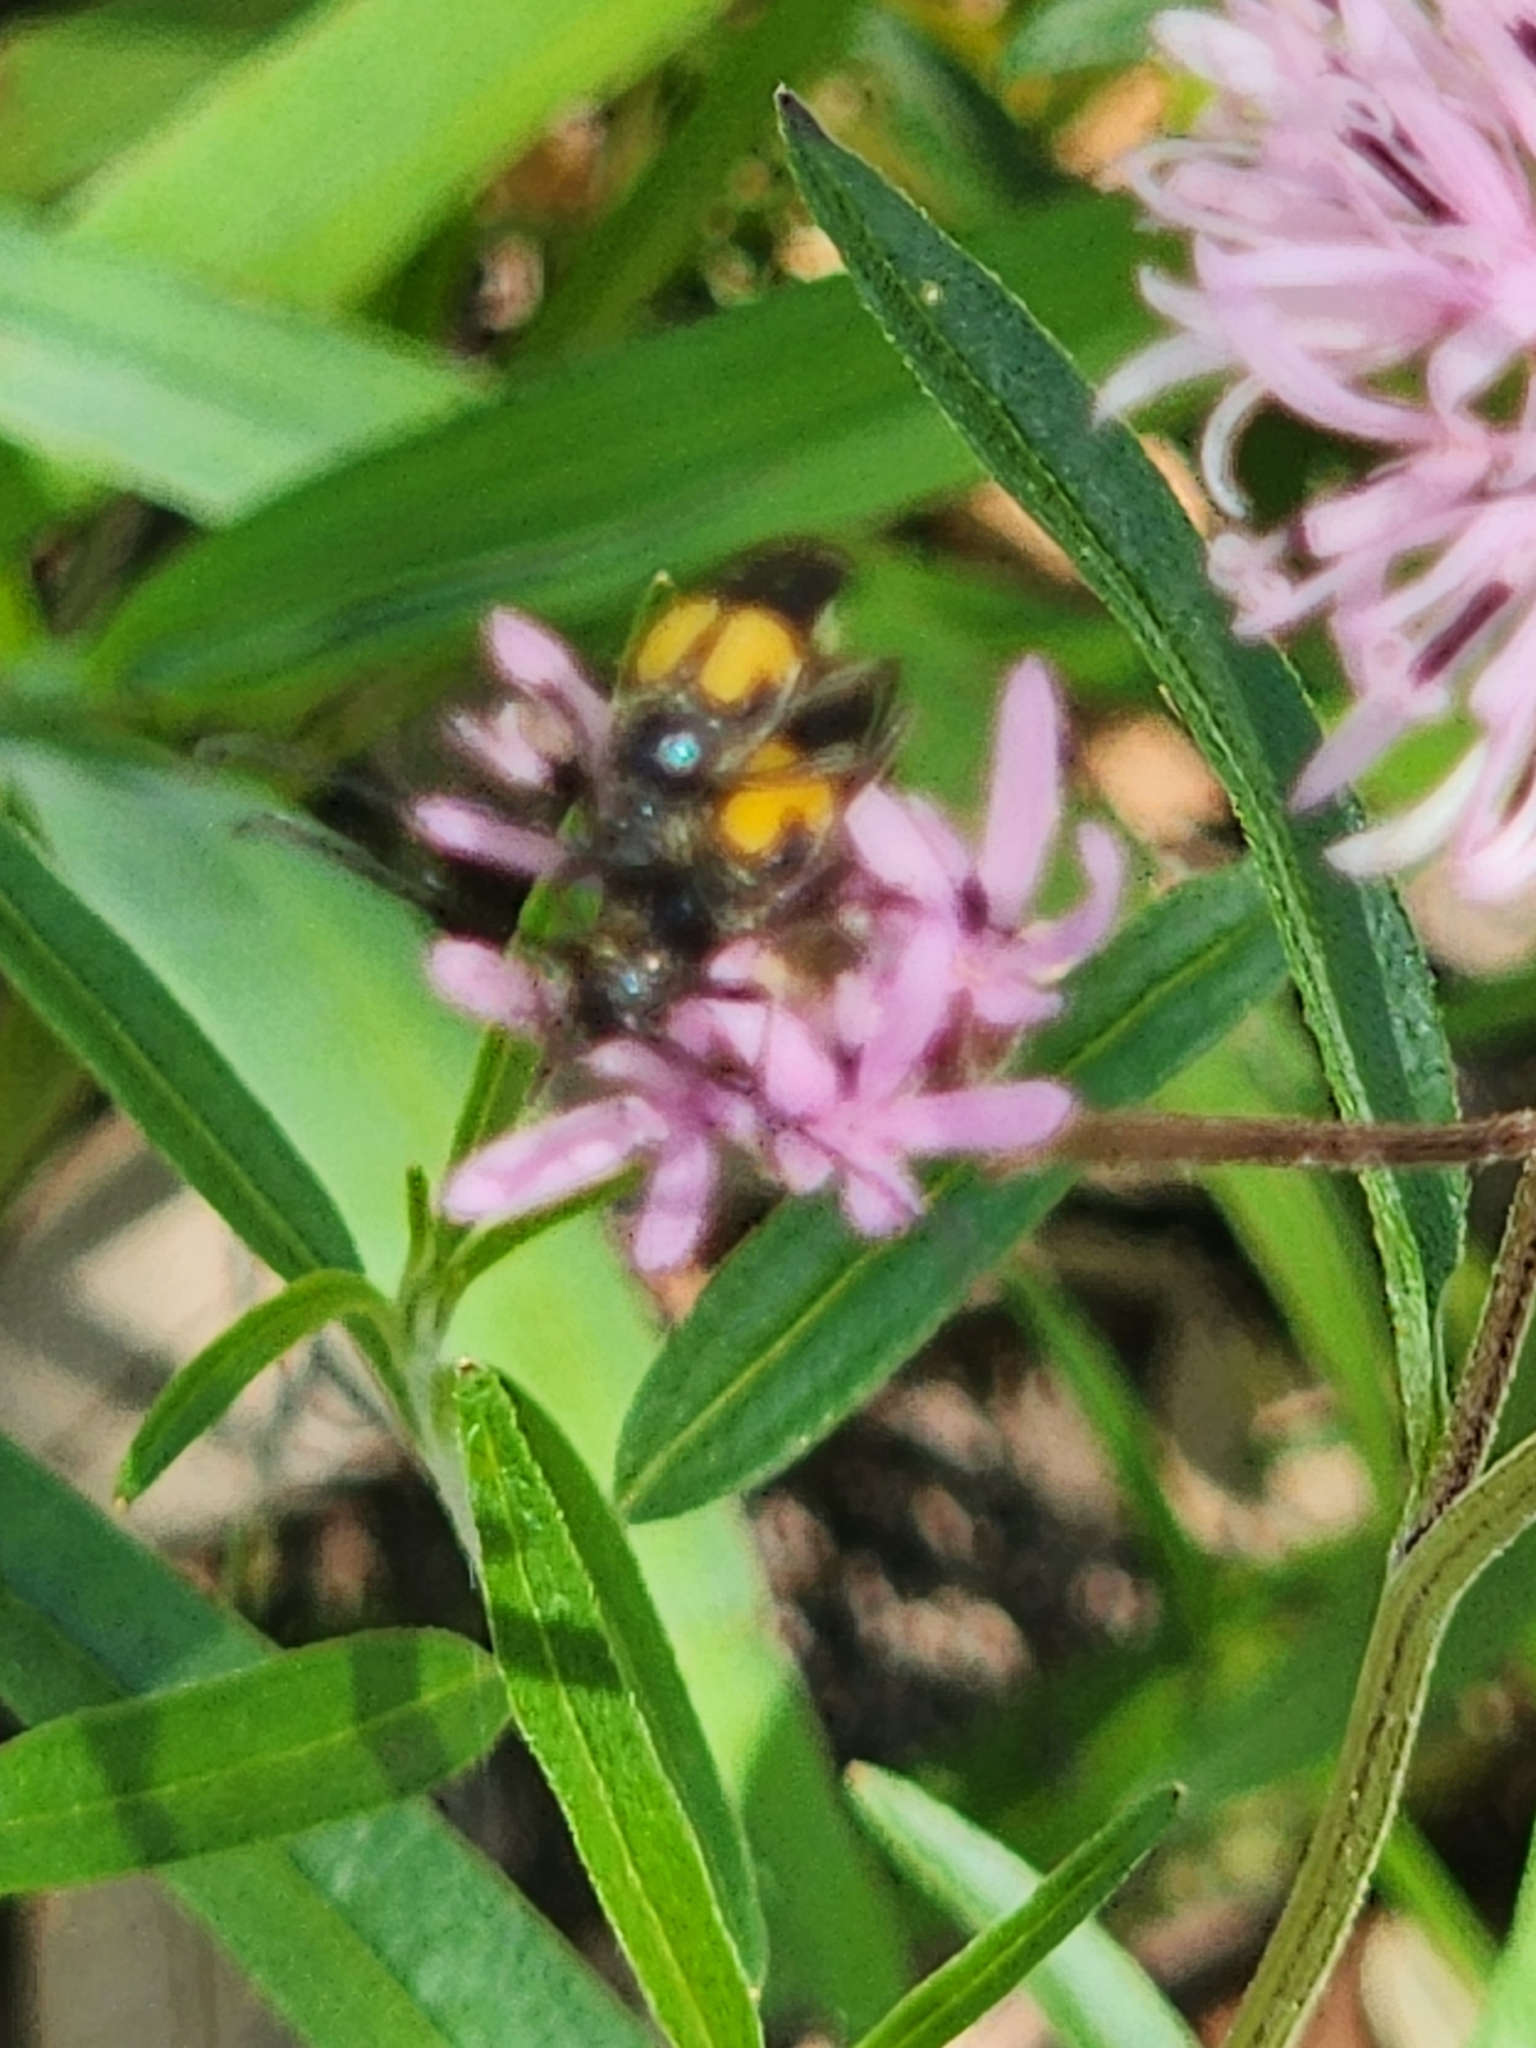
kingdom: Animalia
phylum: Arthropoda
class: Insecta
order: Coleoptera
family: Cerambycidae
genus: Typocerus
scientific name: Typocerus lunulatus
